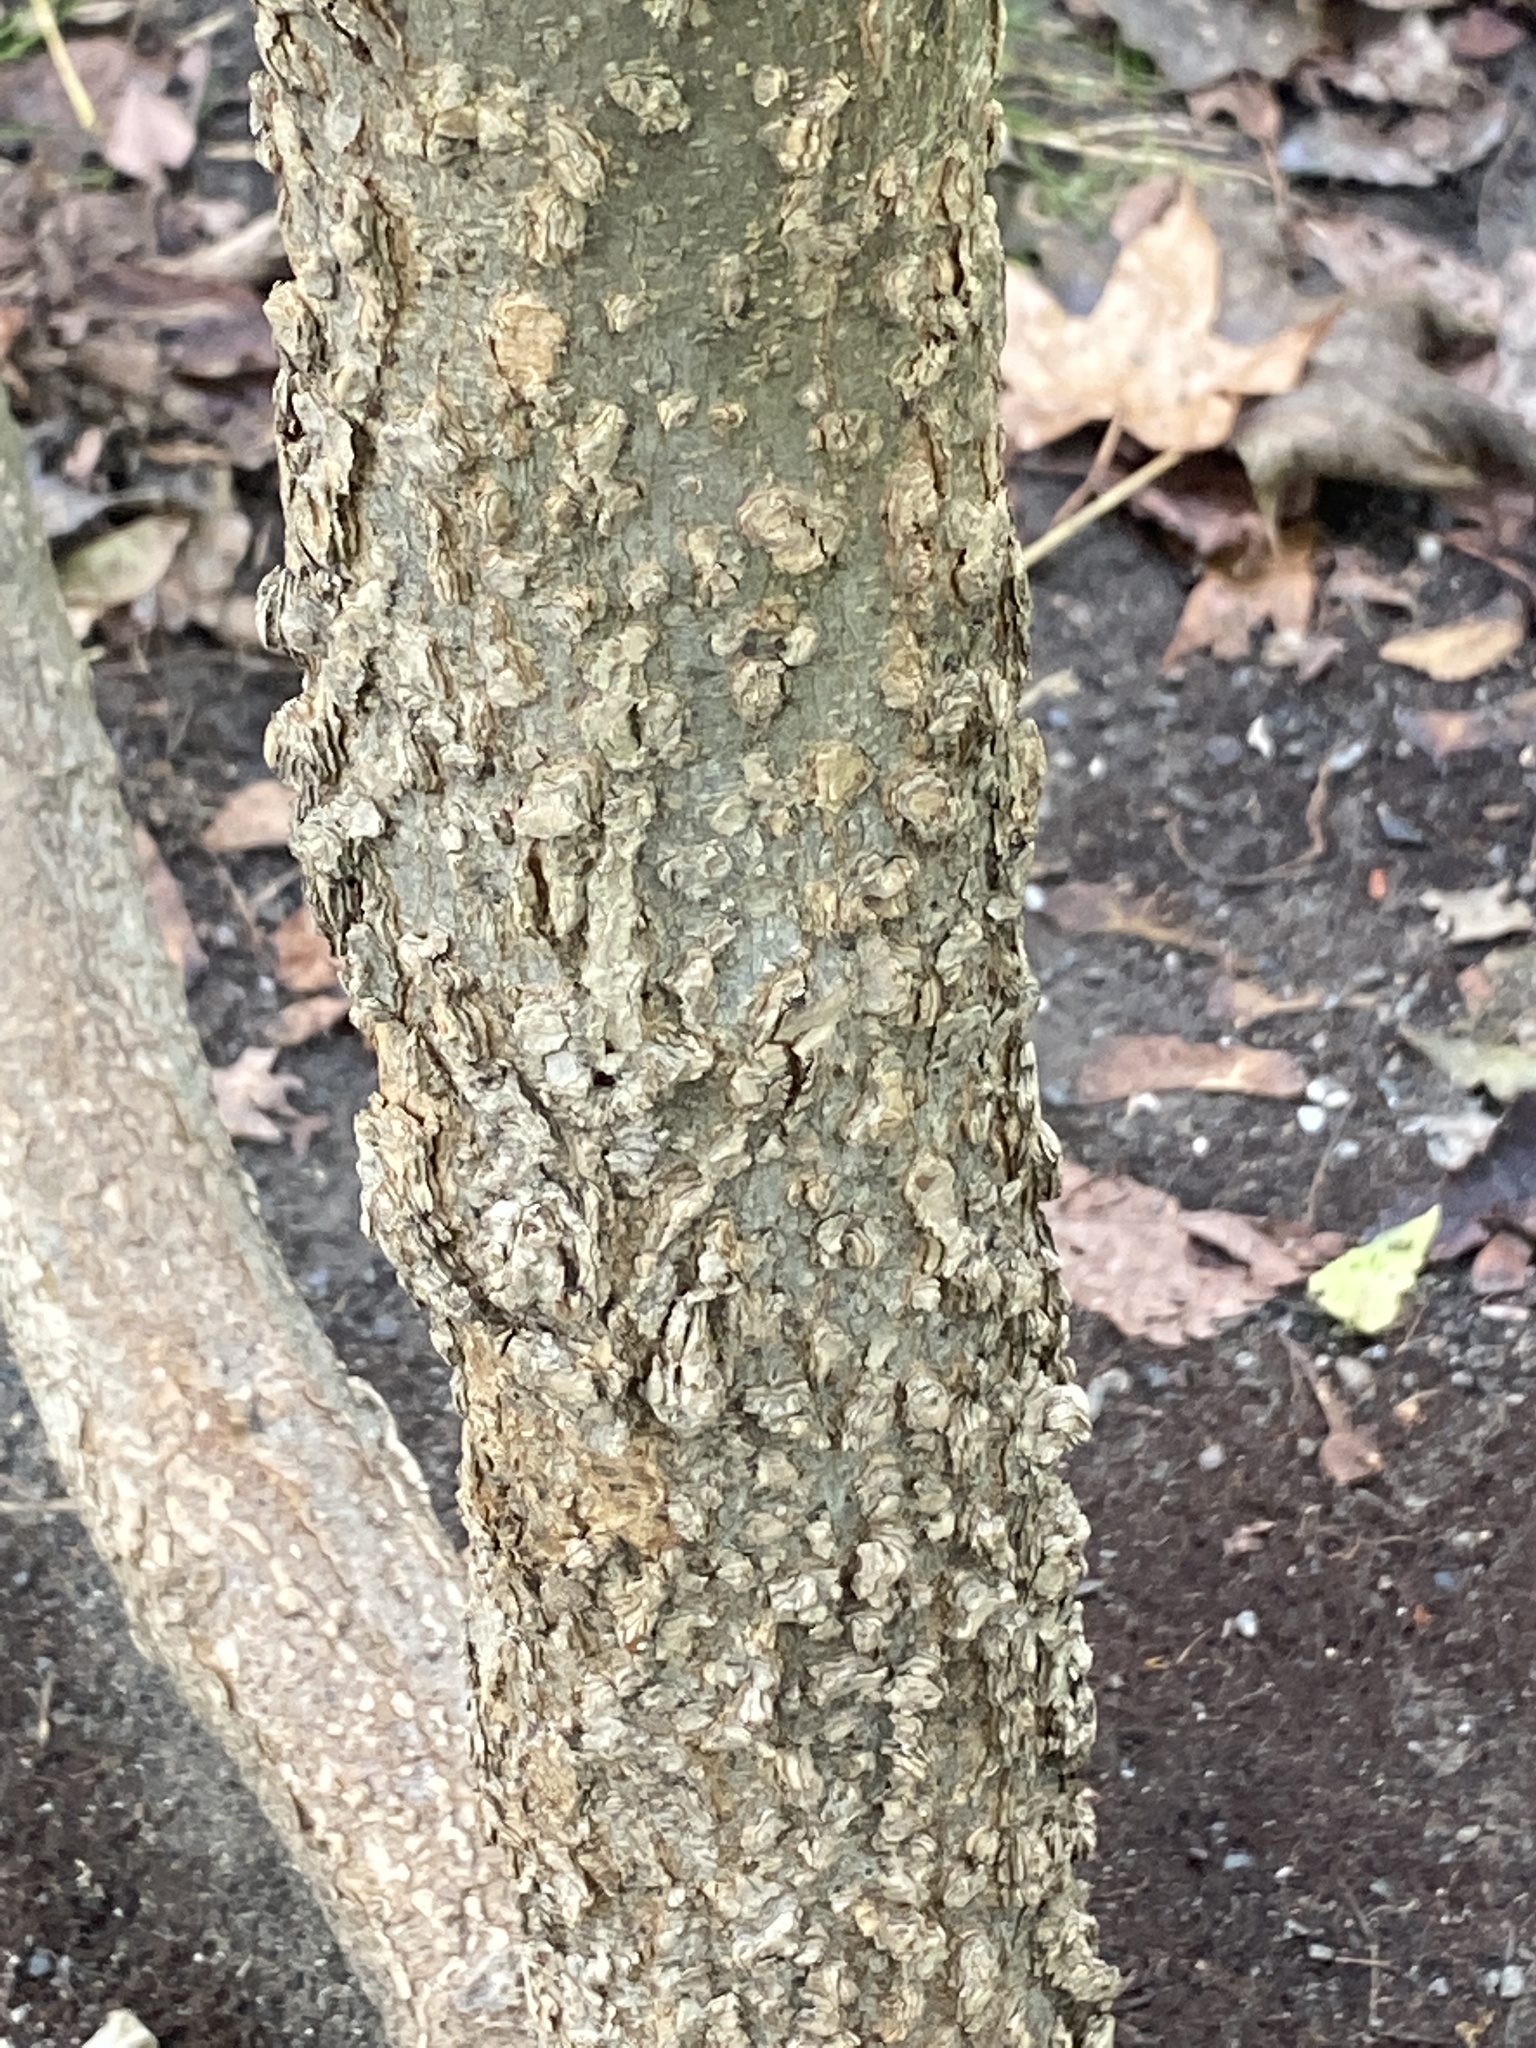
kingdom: Plantae
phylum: Tracheophyta
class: Magnoliopsida
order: Rosales
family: Cannabaceae
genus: Celtis
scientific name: Celtis occidentalis
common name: Common hackberry
